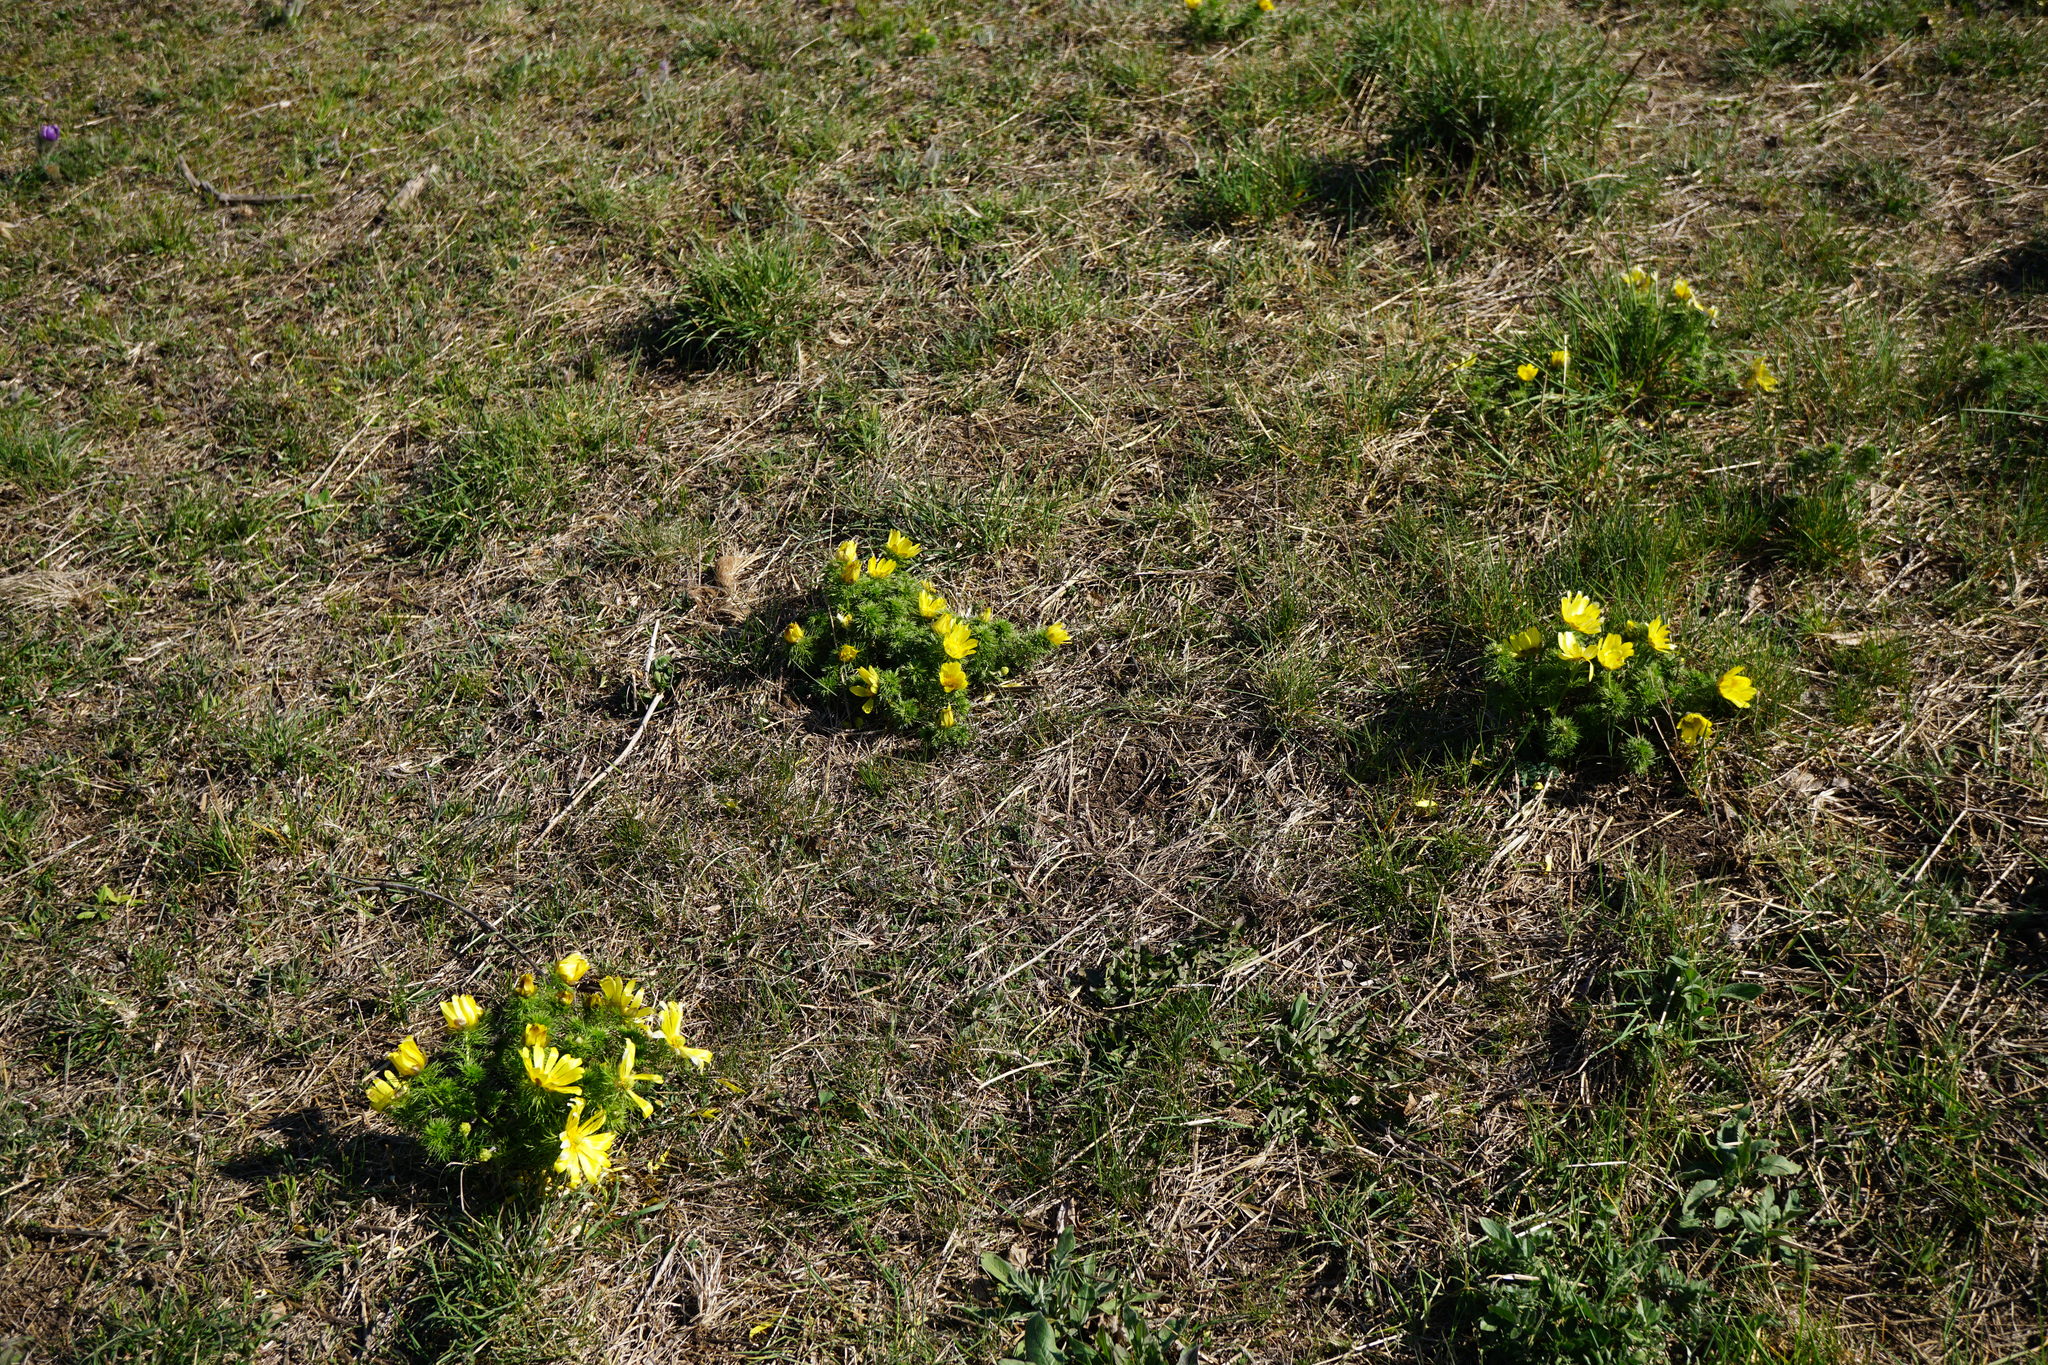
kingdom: Plantae
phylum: Tracheophyta
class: Magnoliopsida
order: Ranunculales
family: Ranunculaceae
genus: Adonis
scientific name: Adonis vernalis
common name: Yellow pheasants-eye
